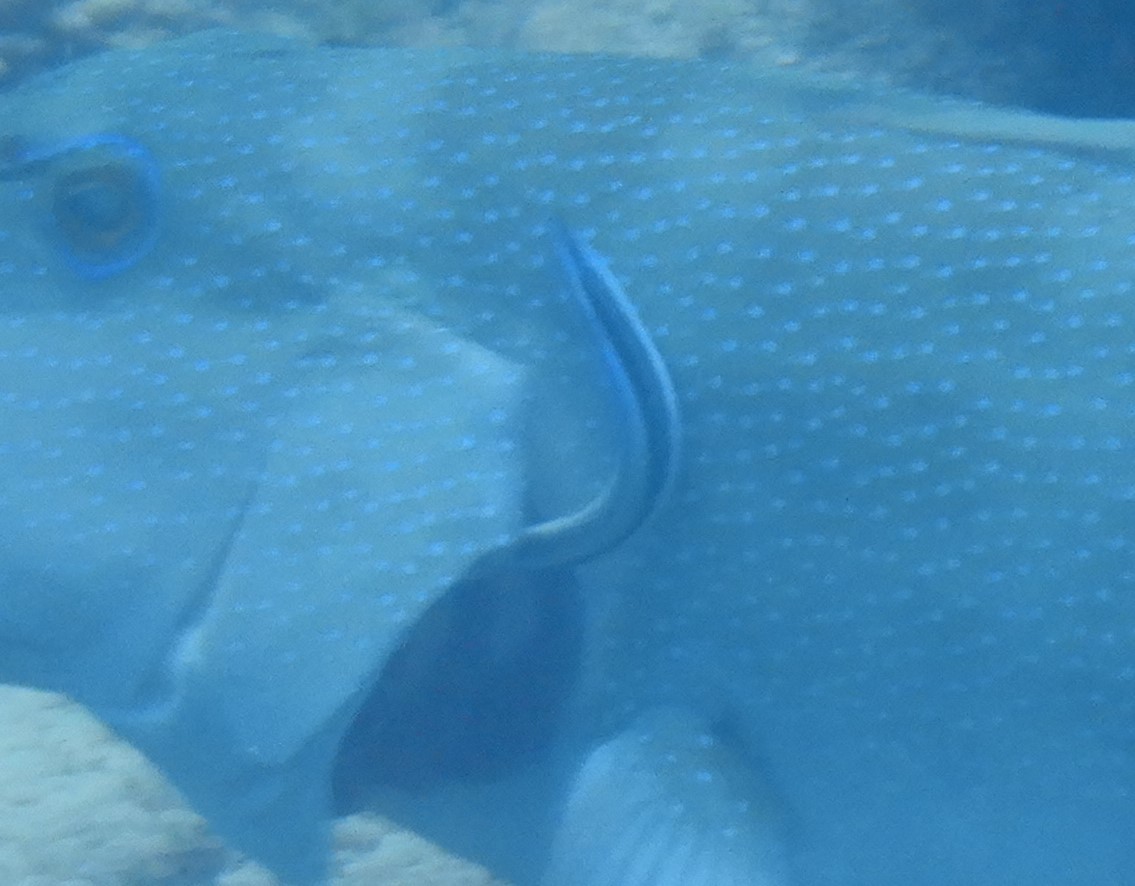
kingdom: Animalia
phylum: Chordata
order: Perciformes
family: Labridae
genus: Labroides
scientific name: Labroides dimidiatus
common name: Blue diesel wrasse
